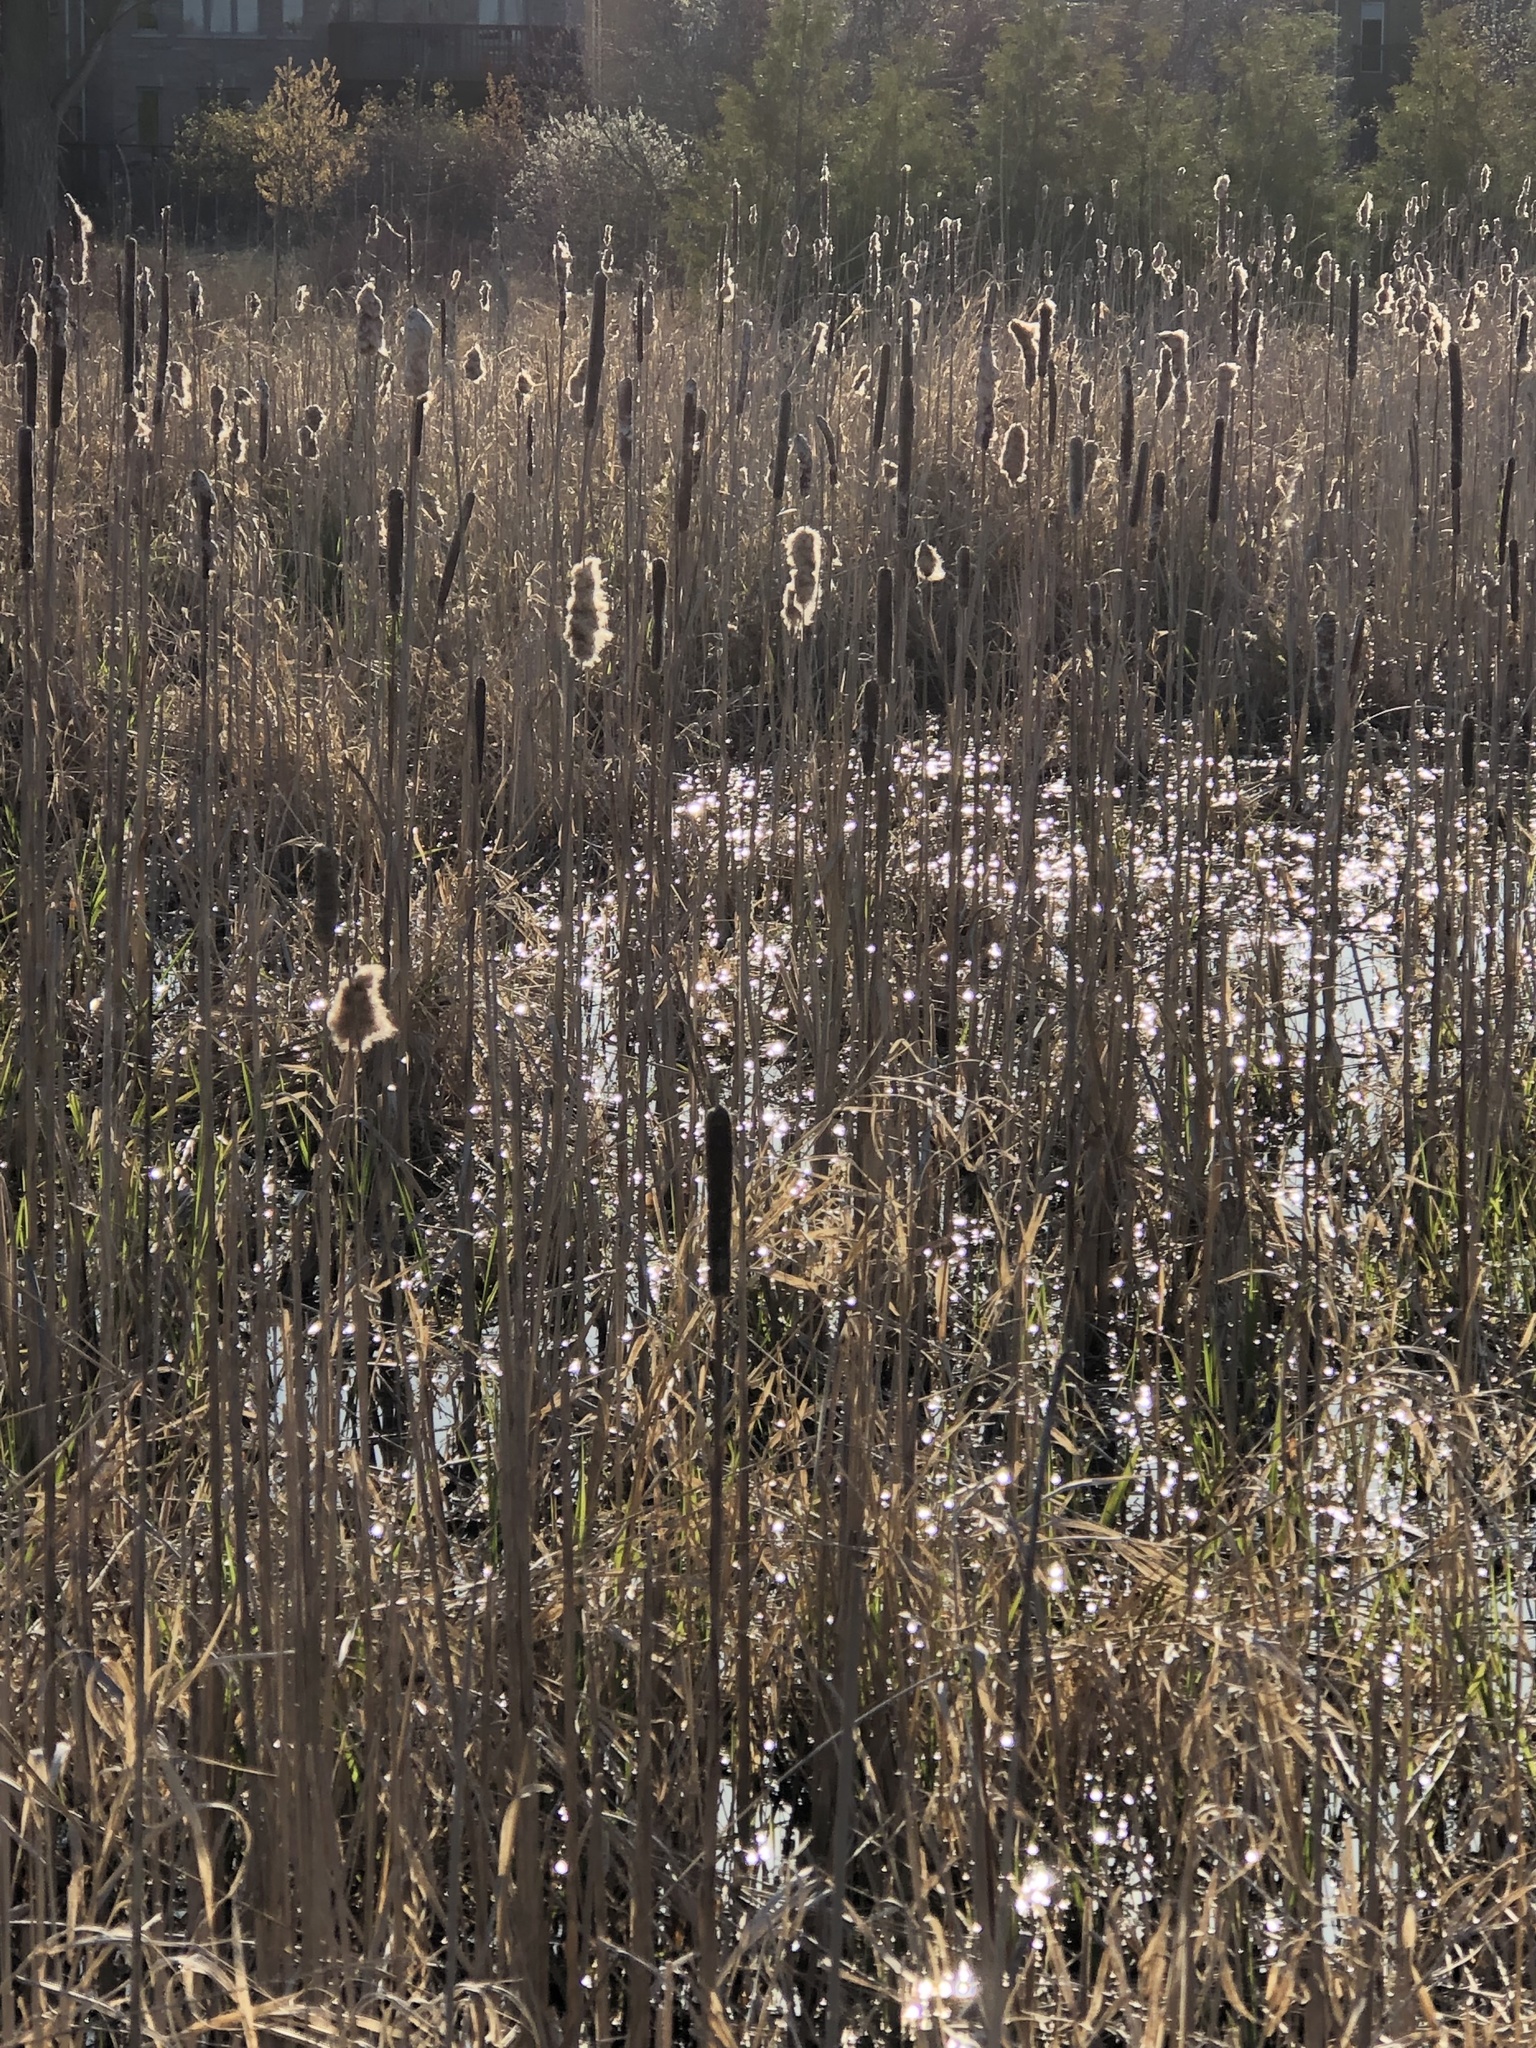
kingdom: Plantae
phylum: Tracheophyta
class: Liliopsida
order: Poales
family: Typhaceae
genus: Typha
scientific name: Typha latifolia
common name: Broadleaf cattail
